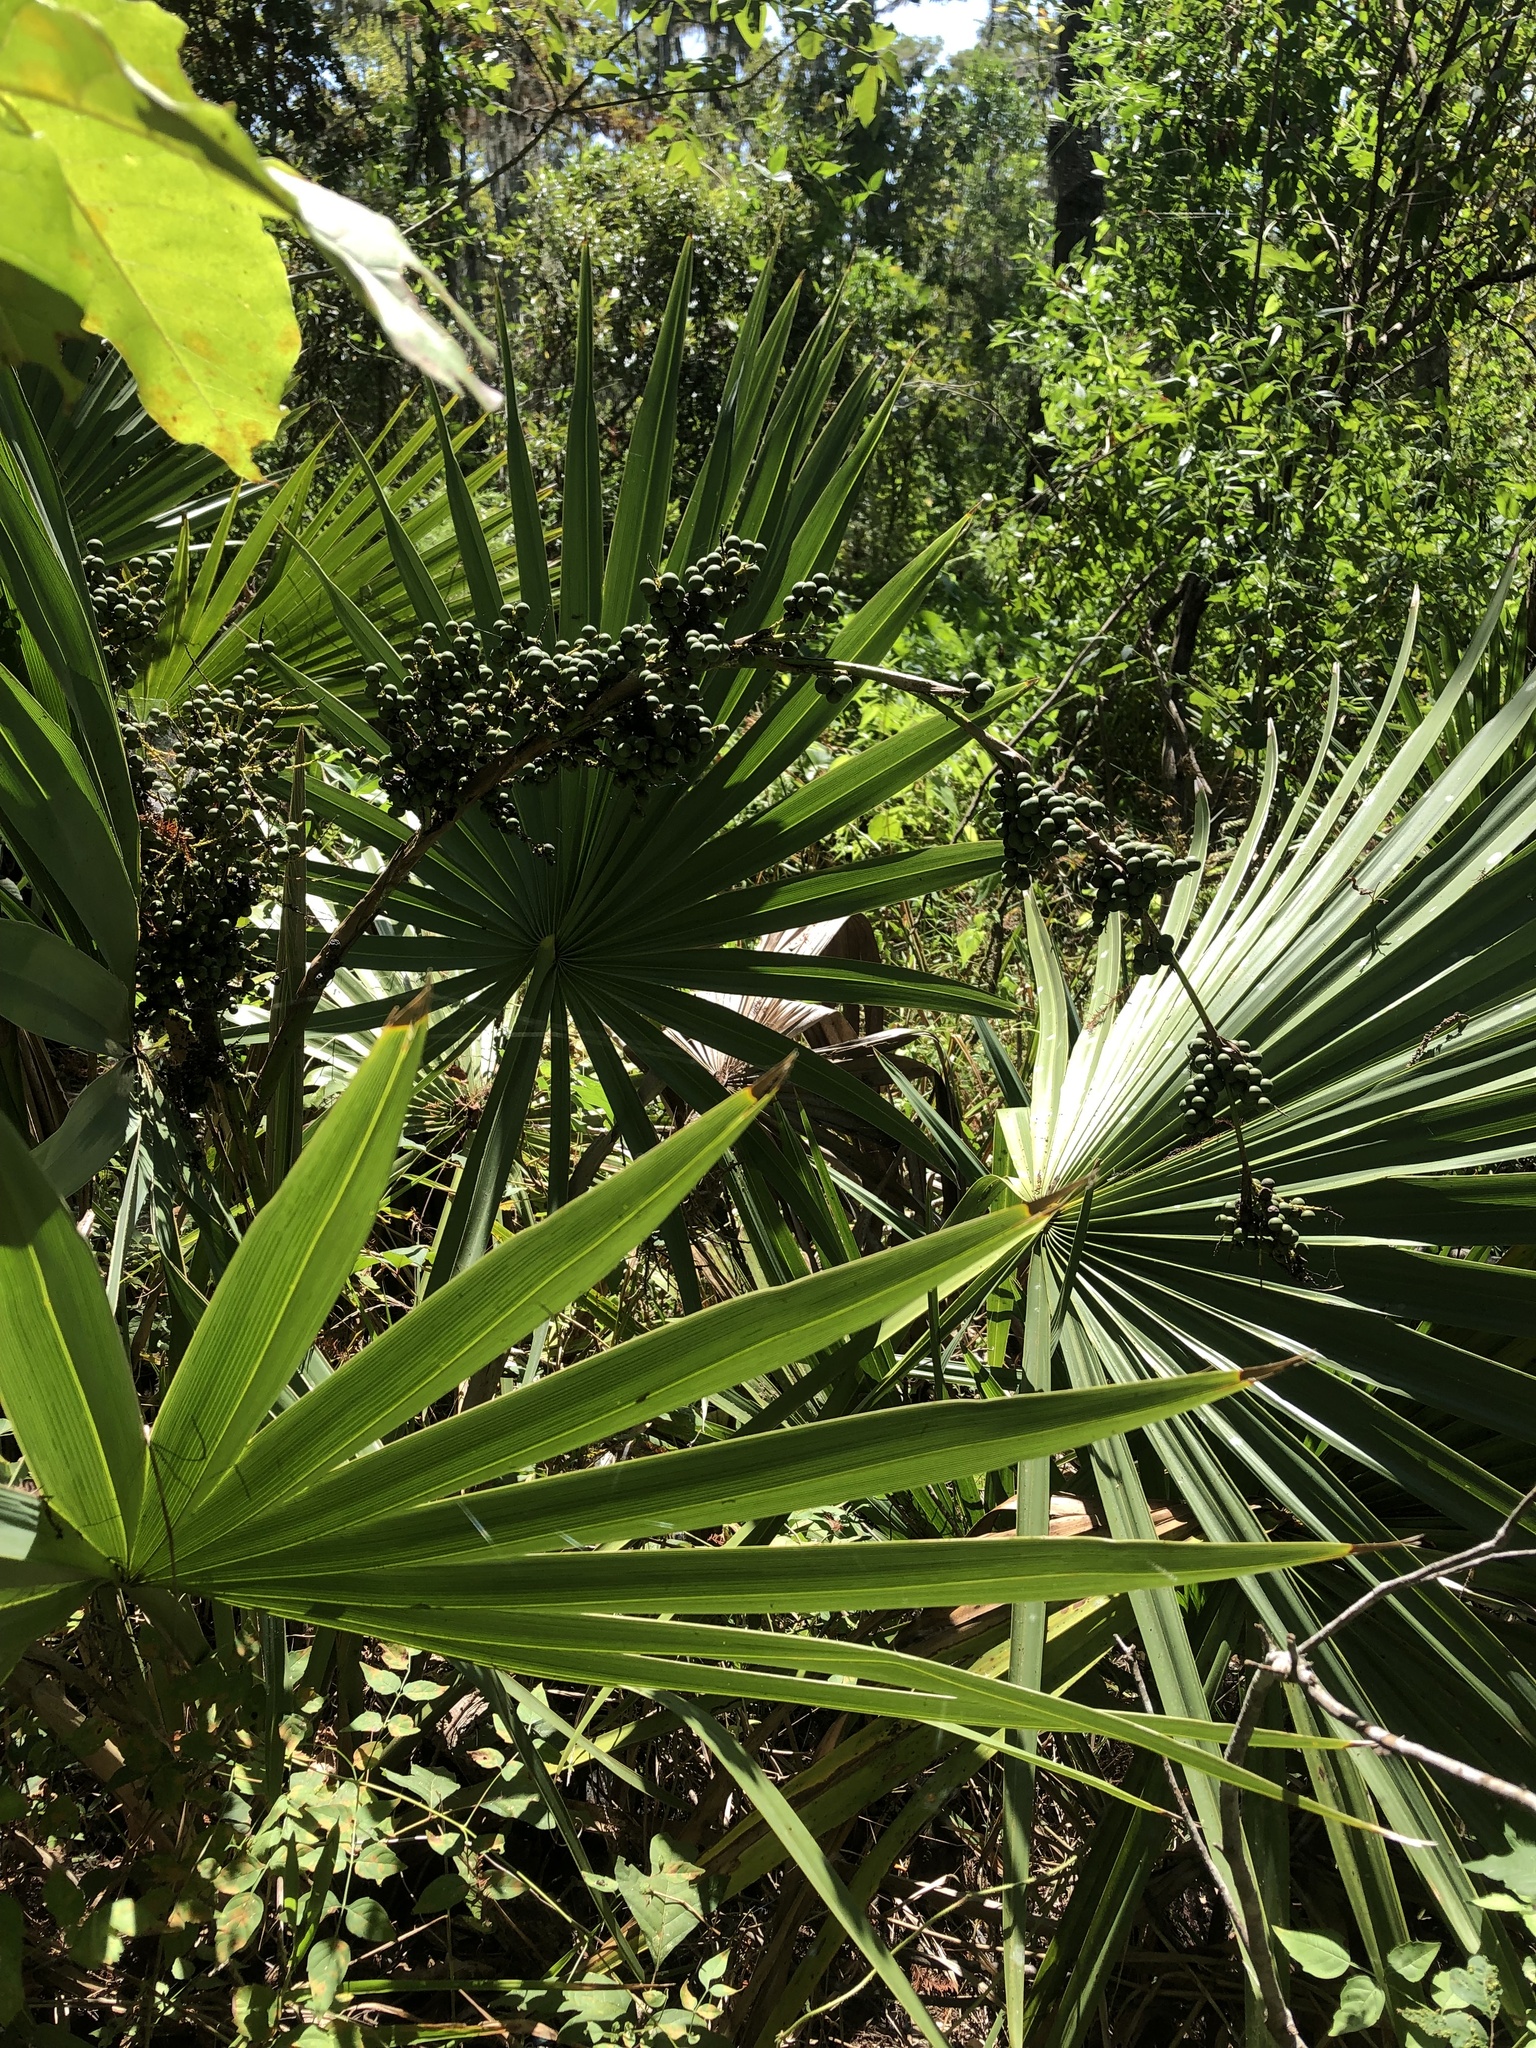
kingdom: Plantae
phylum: Tracheophyta
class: Liliopsida
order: Arecales
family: Arecaceae
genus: Sabal
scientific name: Sabal minor
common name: Dwarf palmetto
